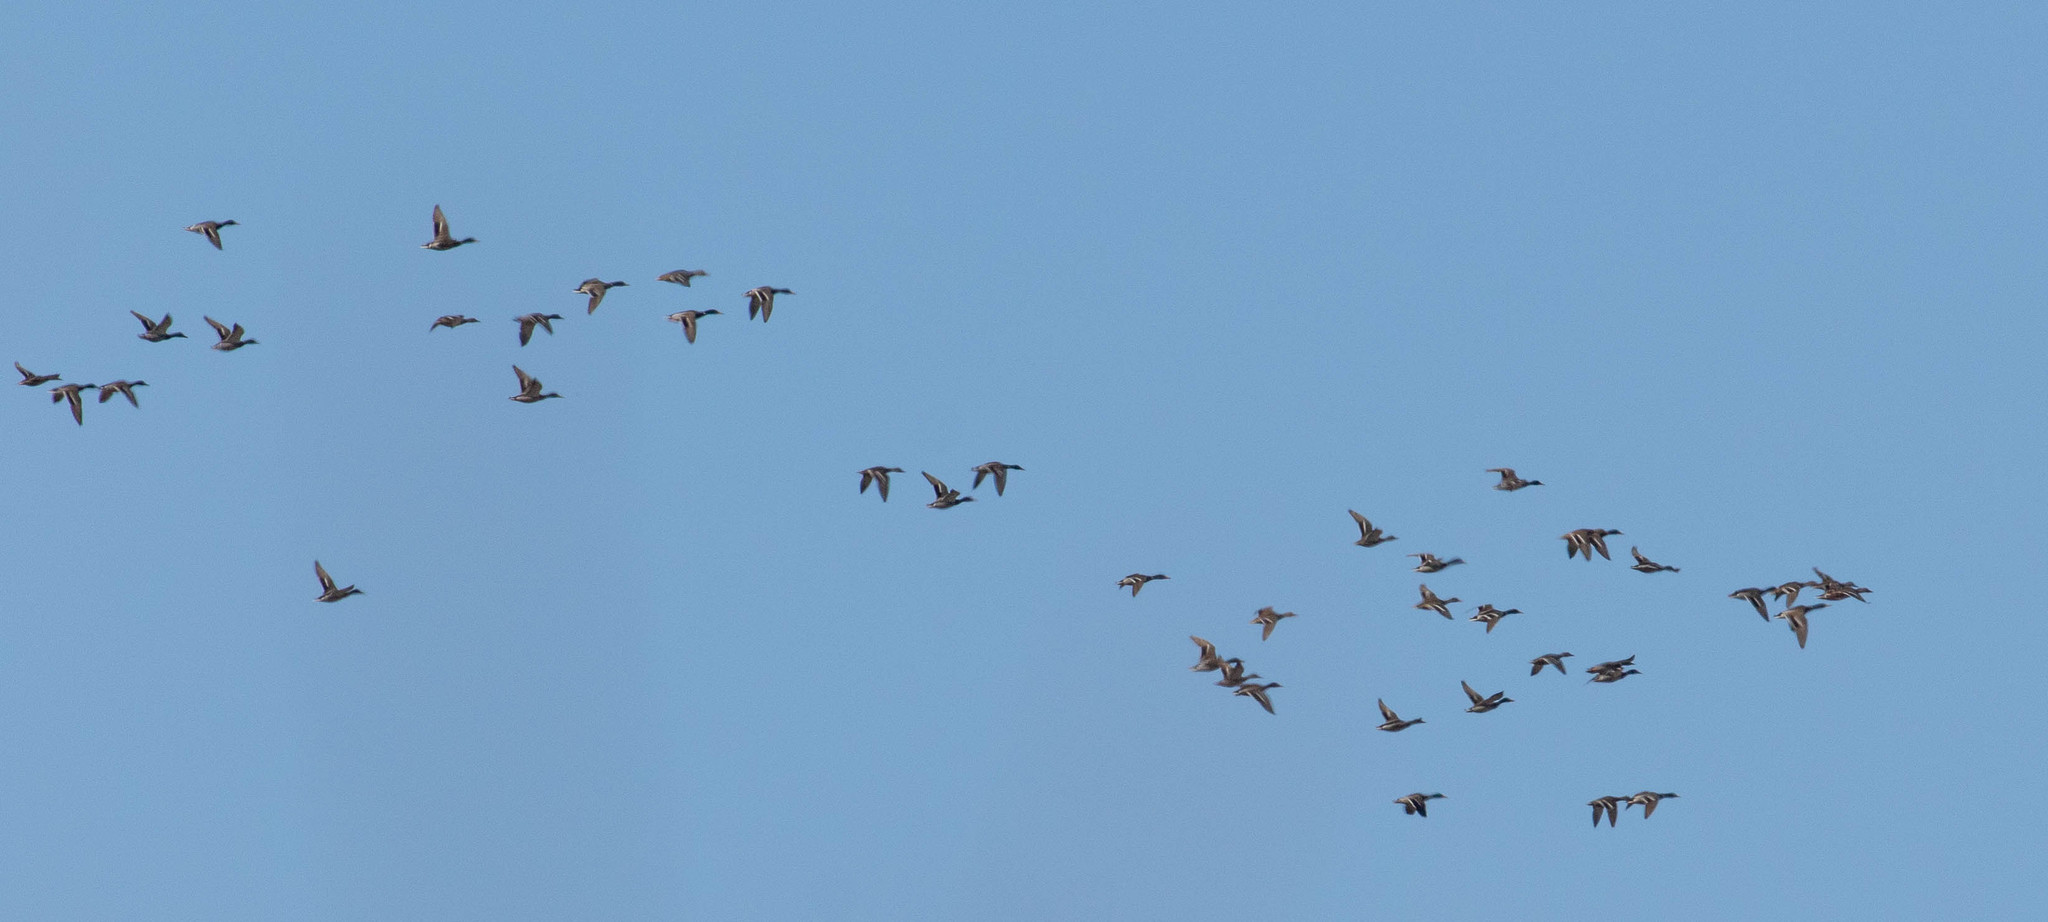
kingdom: Animalia
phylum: Chordata
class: Aves
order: Anseriformes
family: Anatidae
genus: Anas
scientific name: Anas platyrhynchos
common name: Mallard
